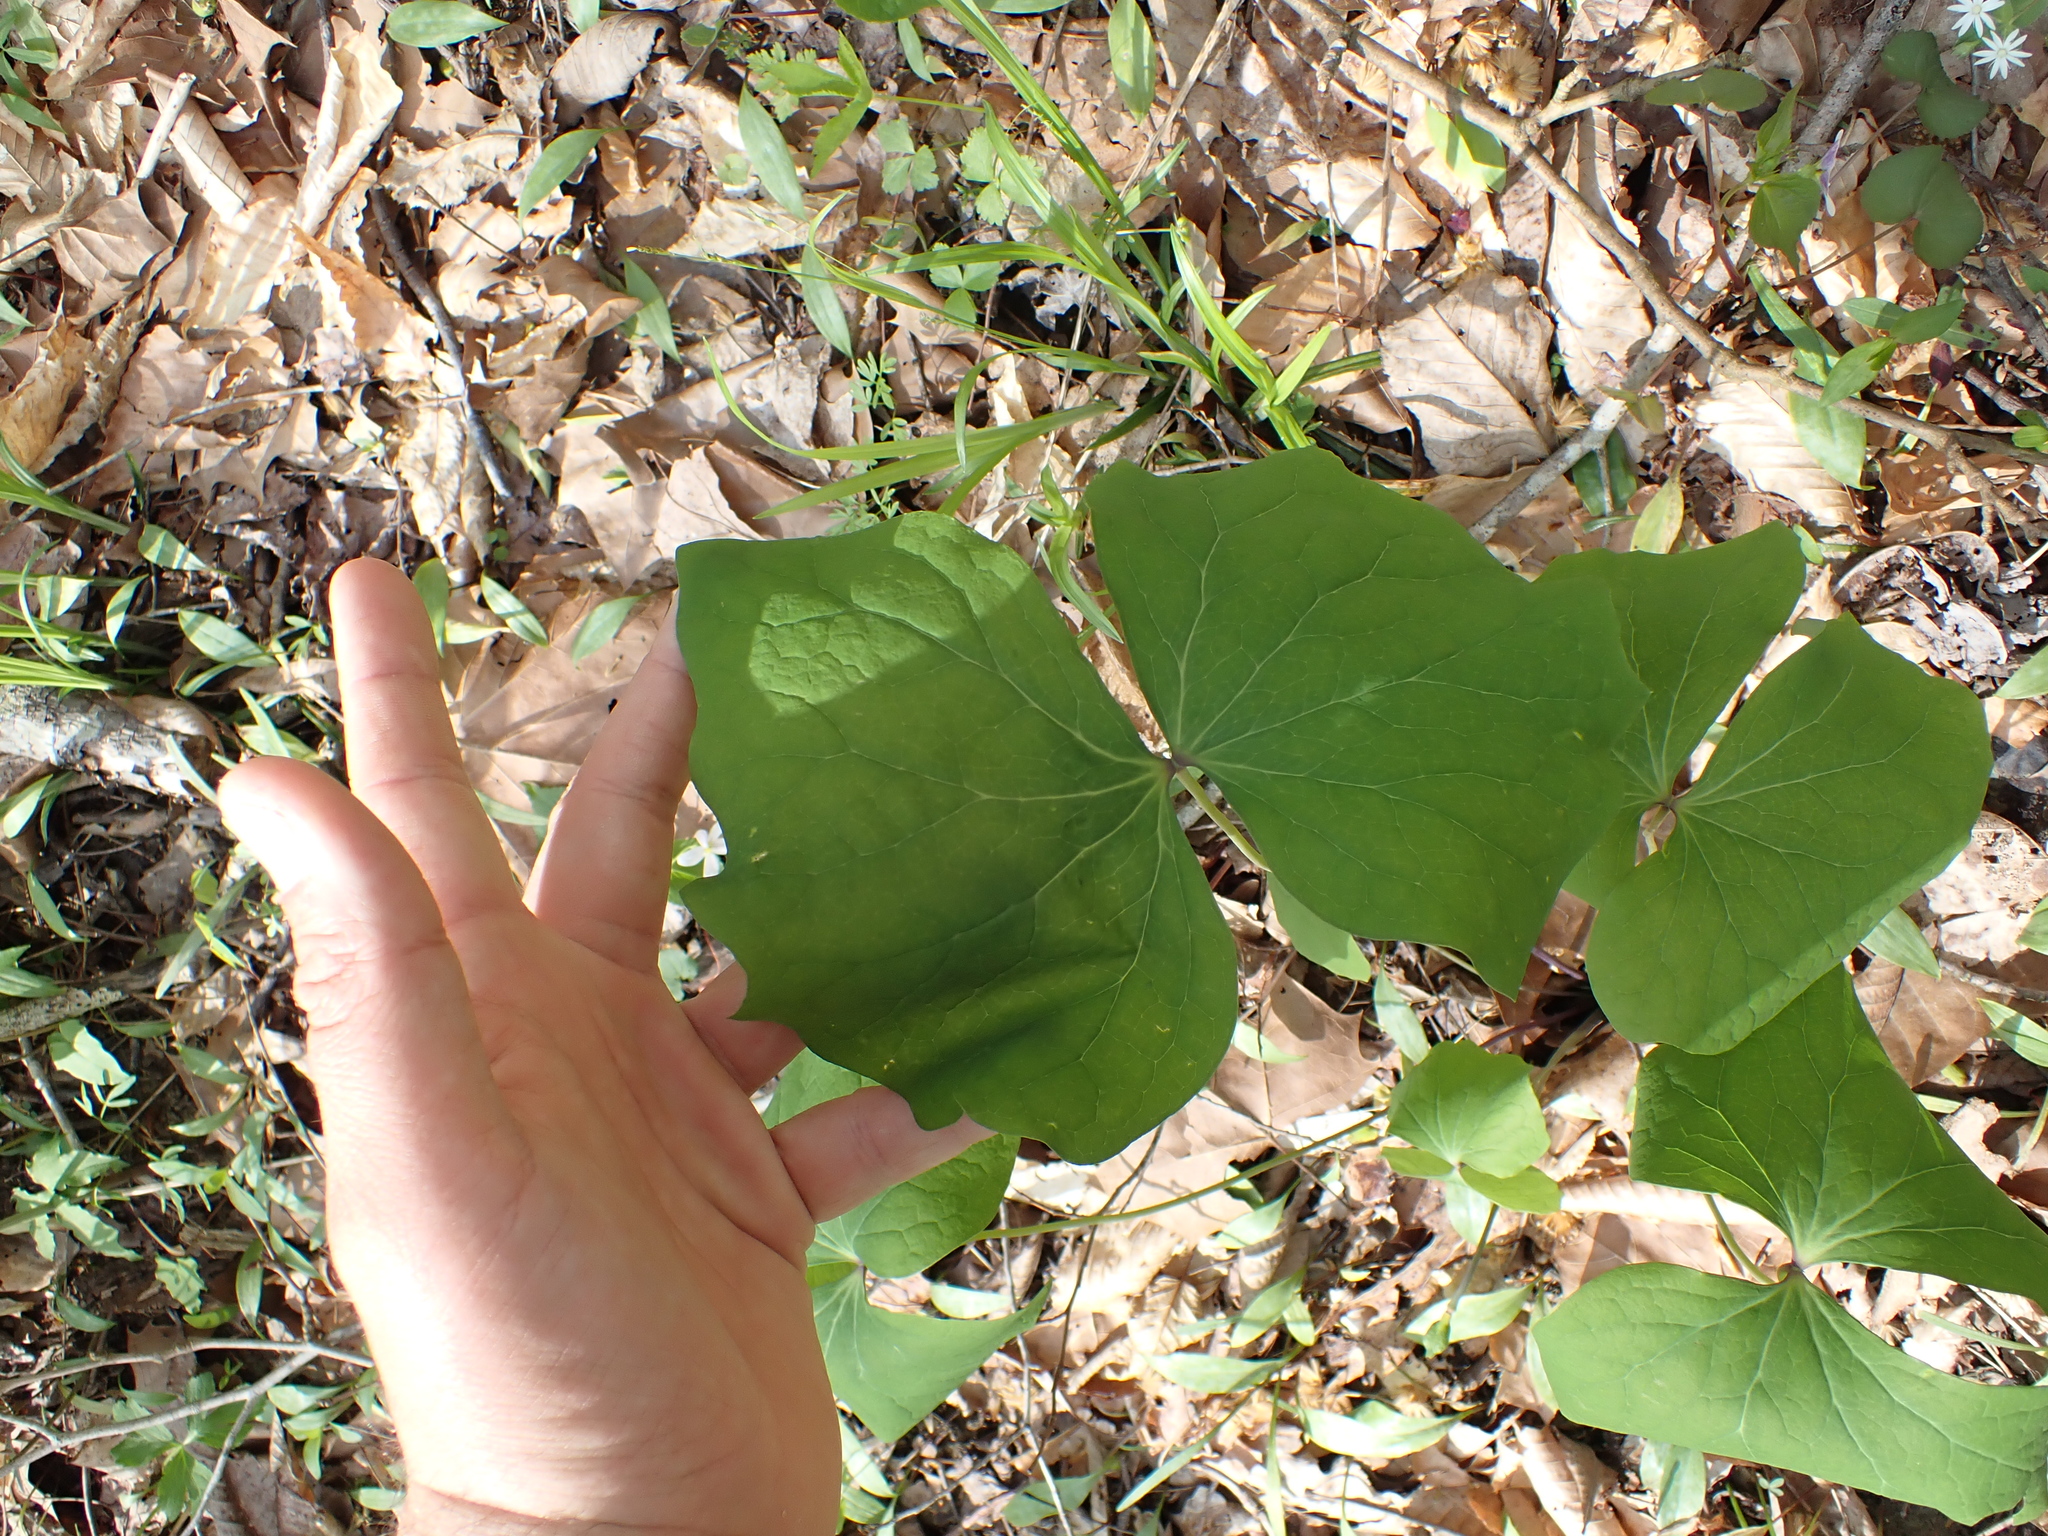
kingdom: Plantae
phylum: Tracheophyta
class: Magnoliopsida
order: Ranunculales
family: Berberidaceae
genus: Jeffersonia
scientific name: Jeffersonia diphylla
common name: Rheumatism-root
